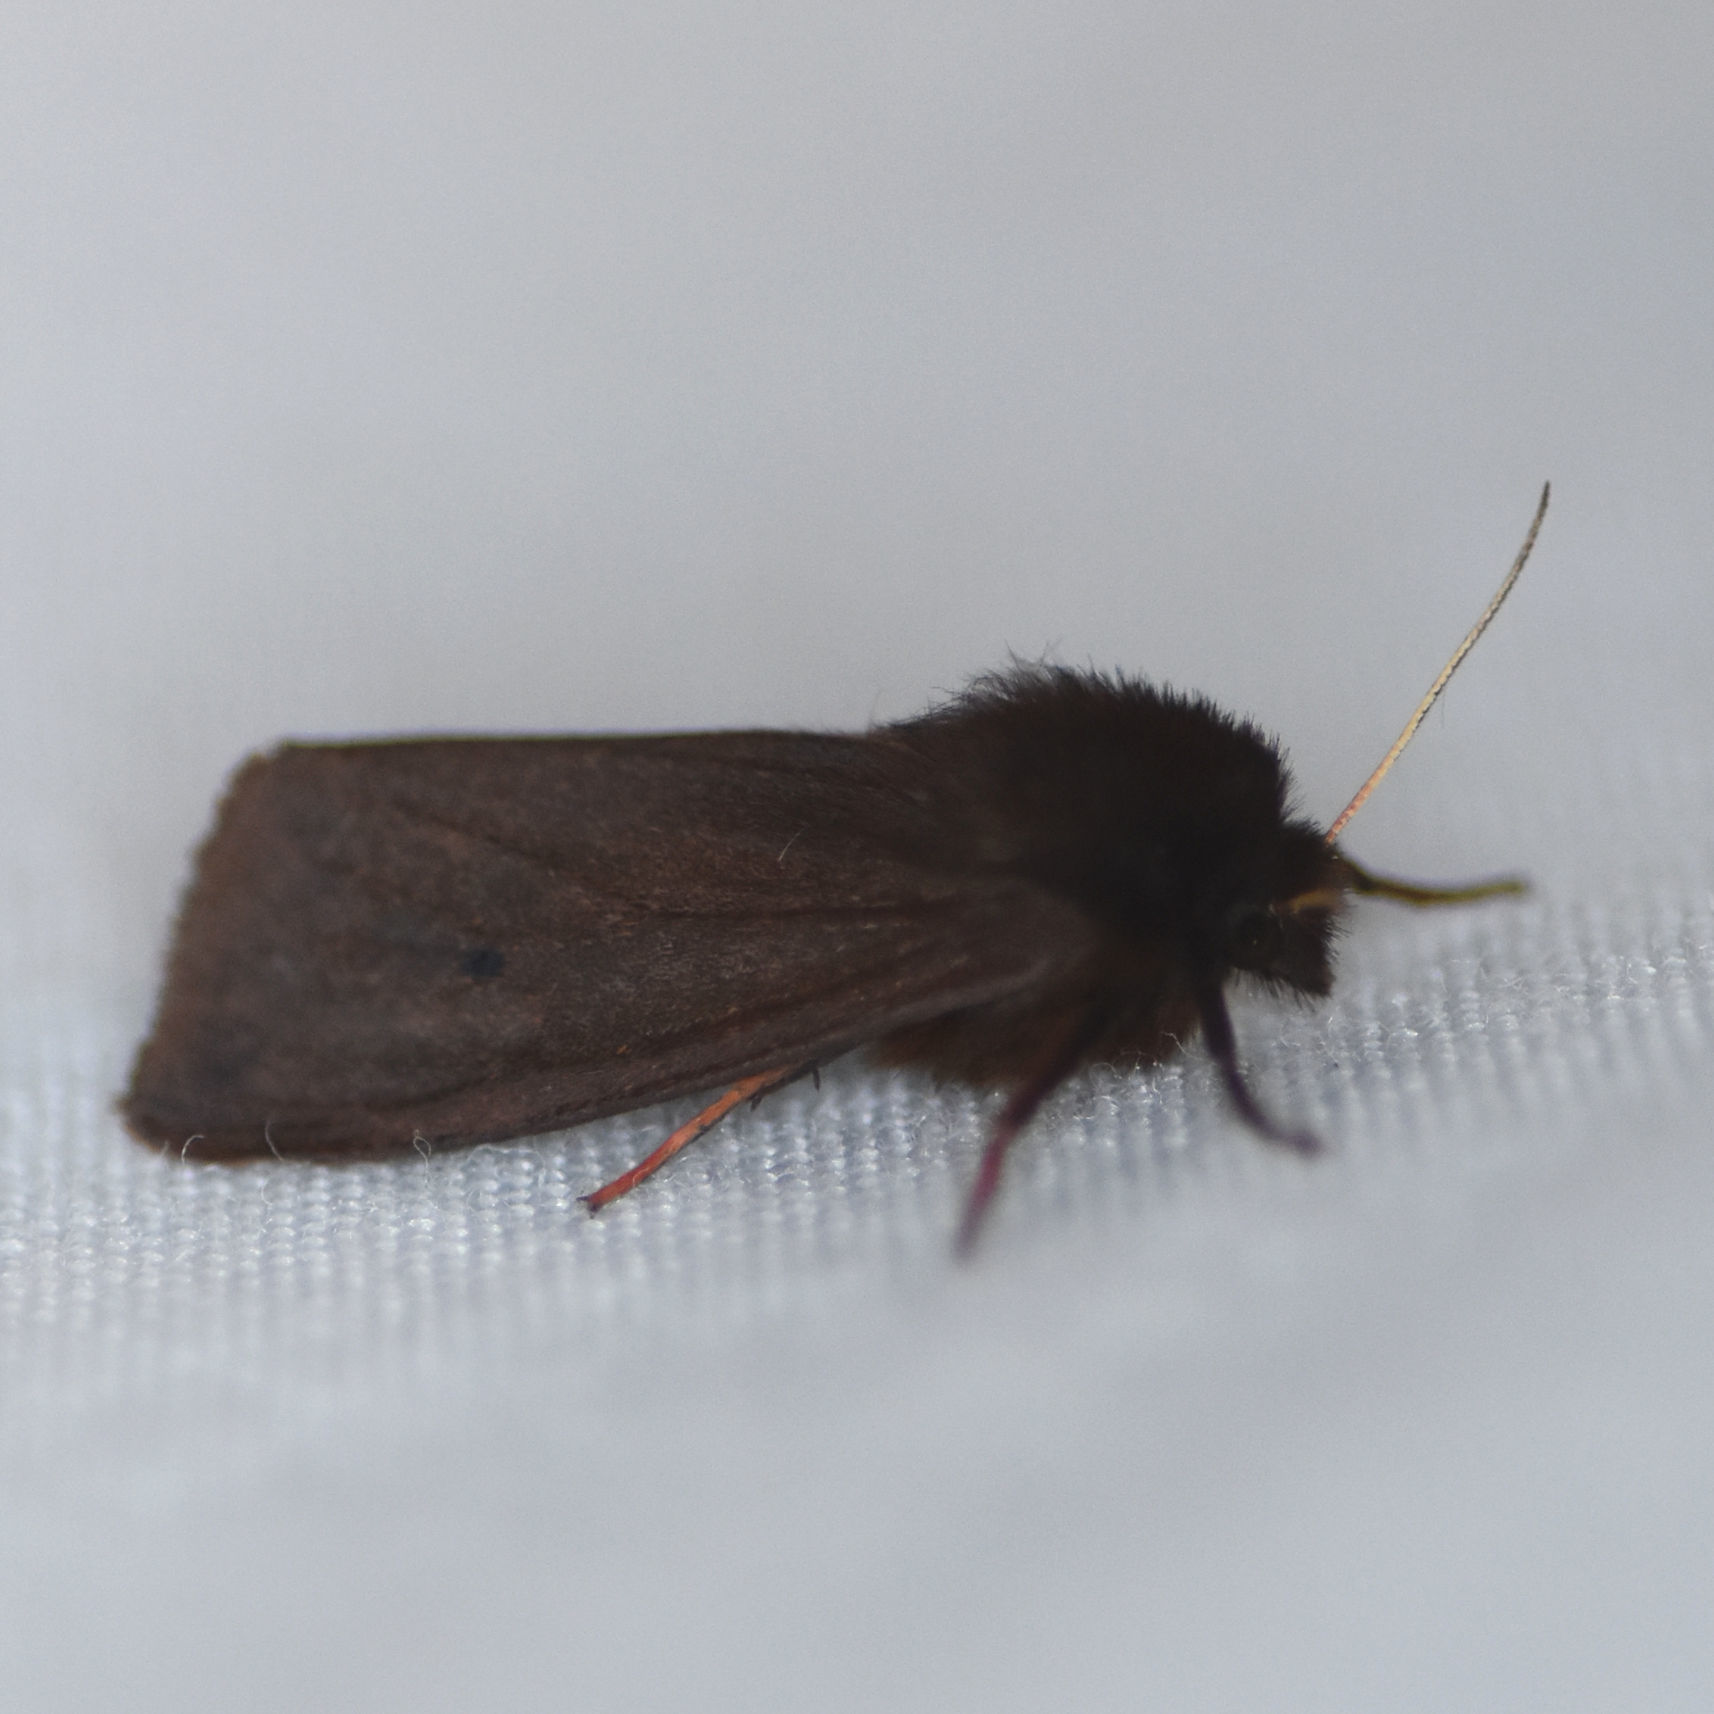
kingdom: Animalia
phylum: Arthropoda
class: Insecta
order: Lepidoptera
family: Erebidae
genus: Phragmatobia
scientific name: Phragmatobia fuliginosa
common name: Ruby tiger
